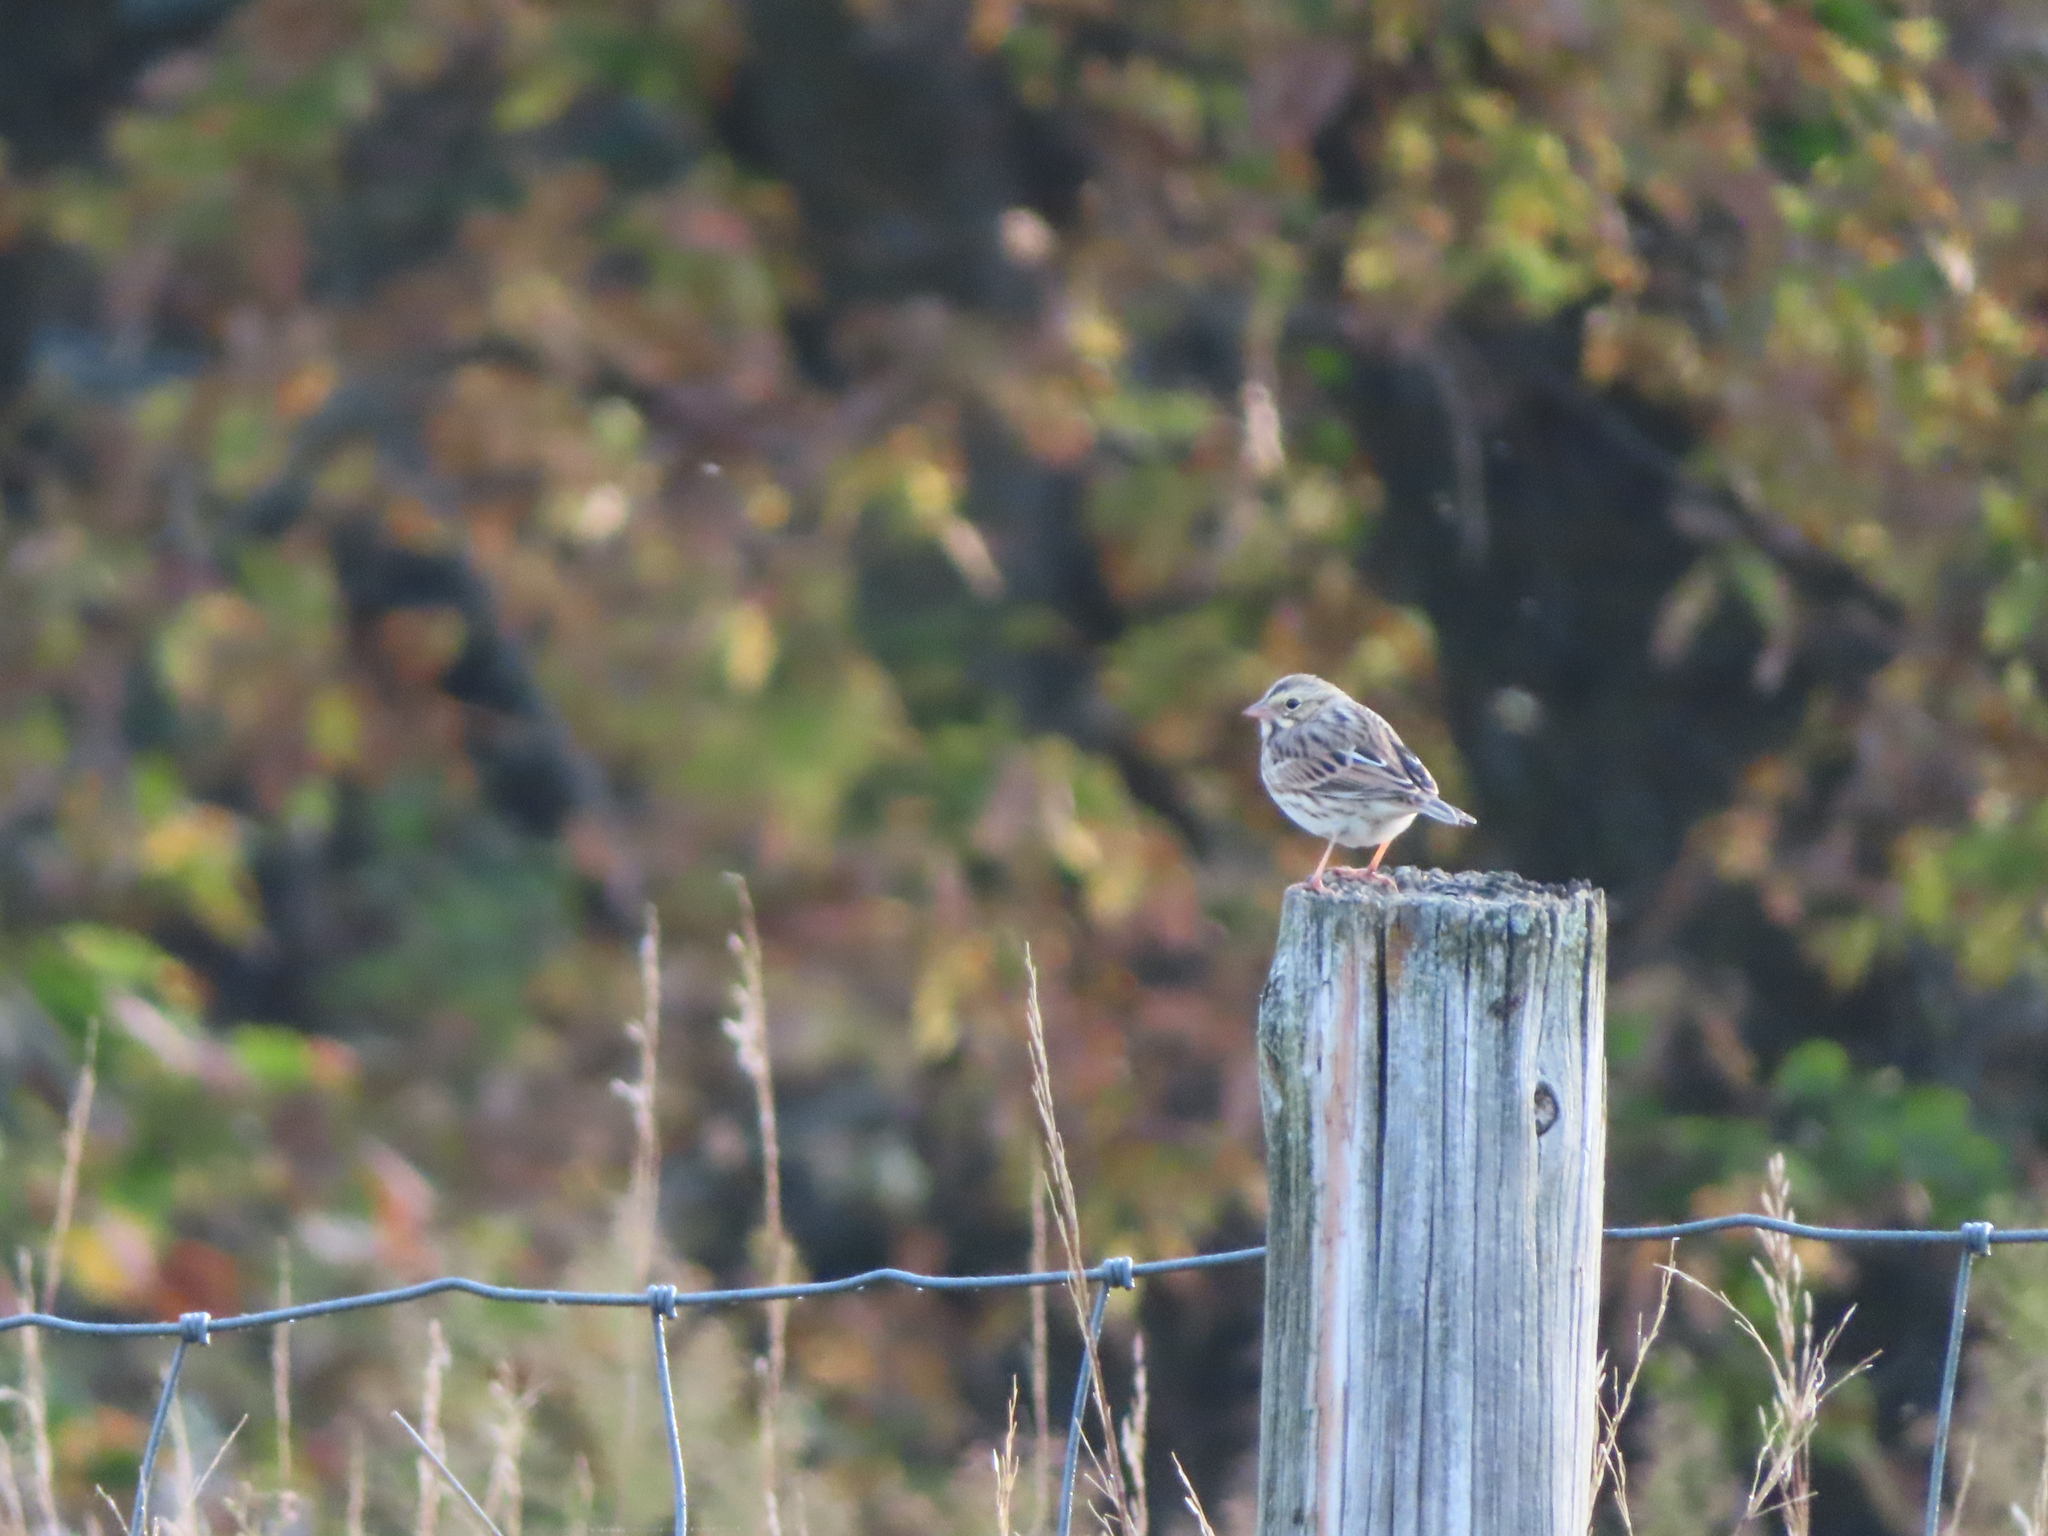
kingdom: Animalia
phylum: Chordata
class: Aves
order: Passeriformes
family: Passerellidae
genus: Passerculus
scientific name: Passerculus sandwichensis
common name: Savannah sparrow
